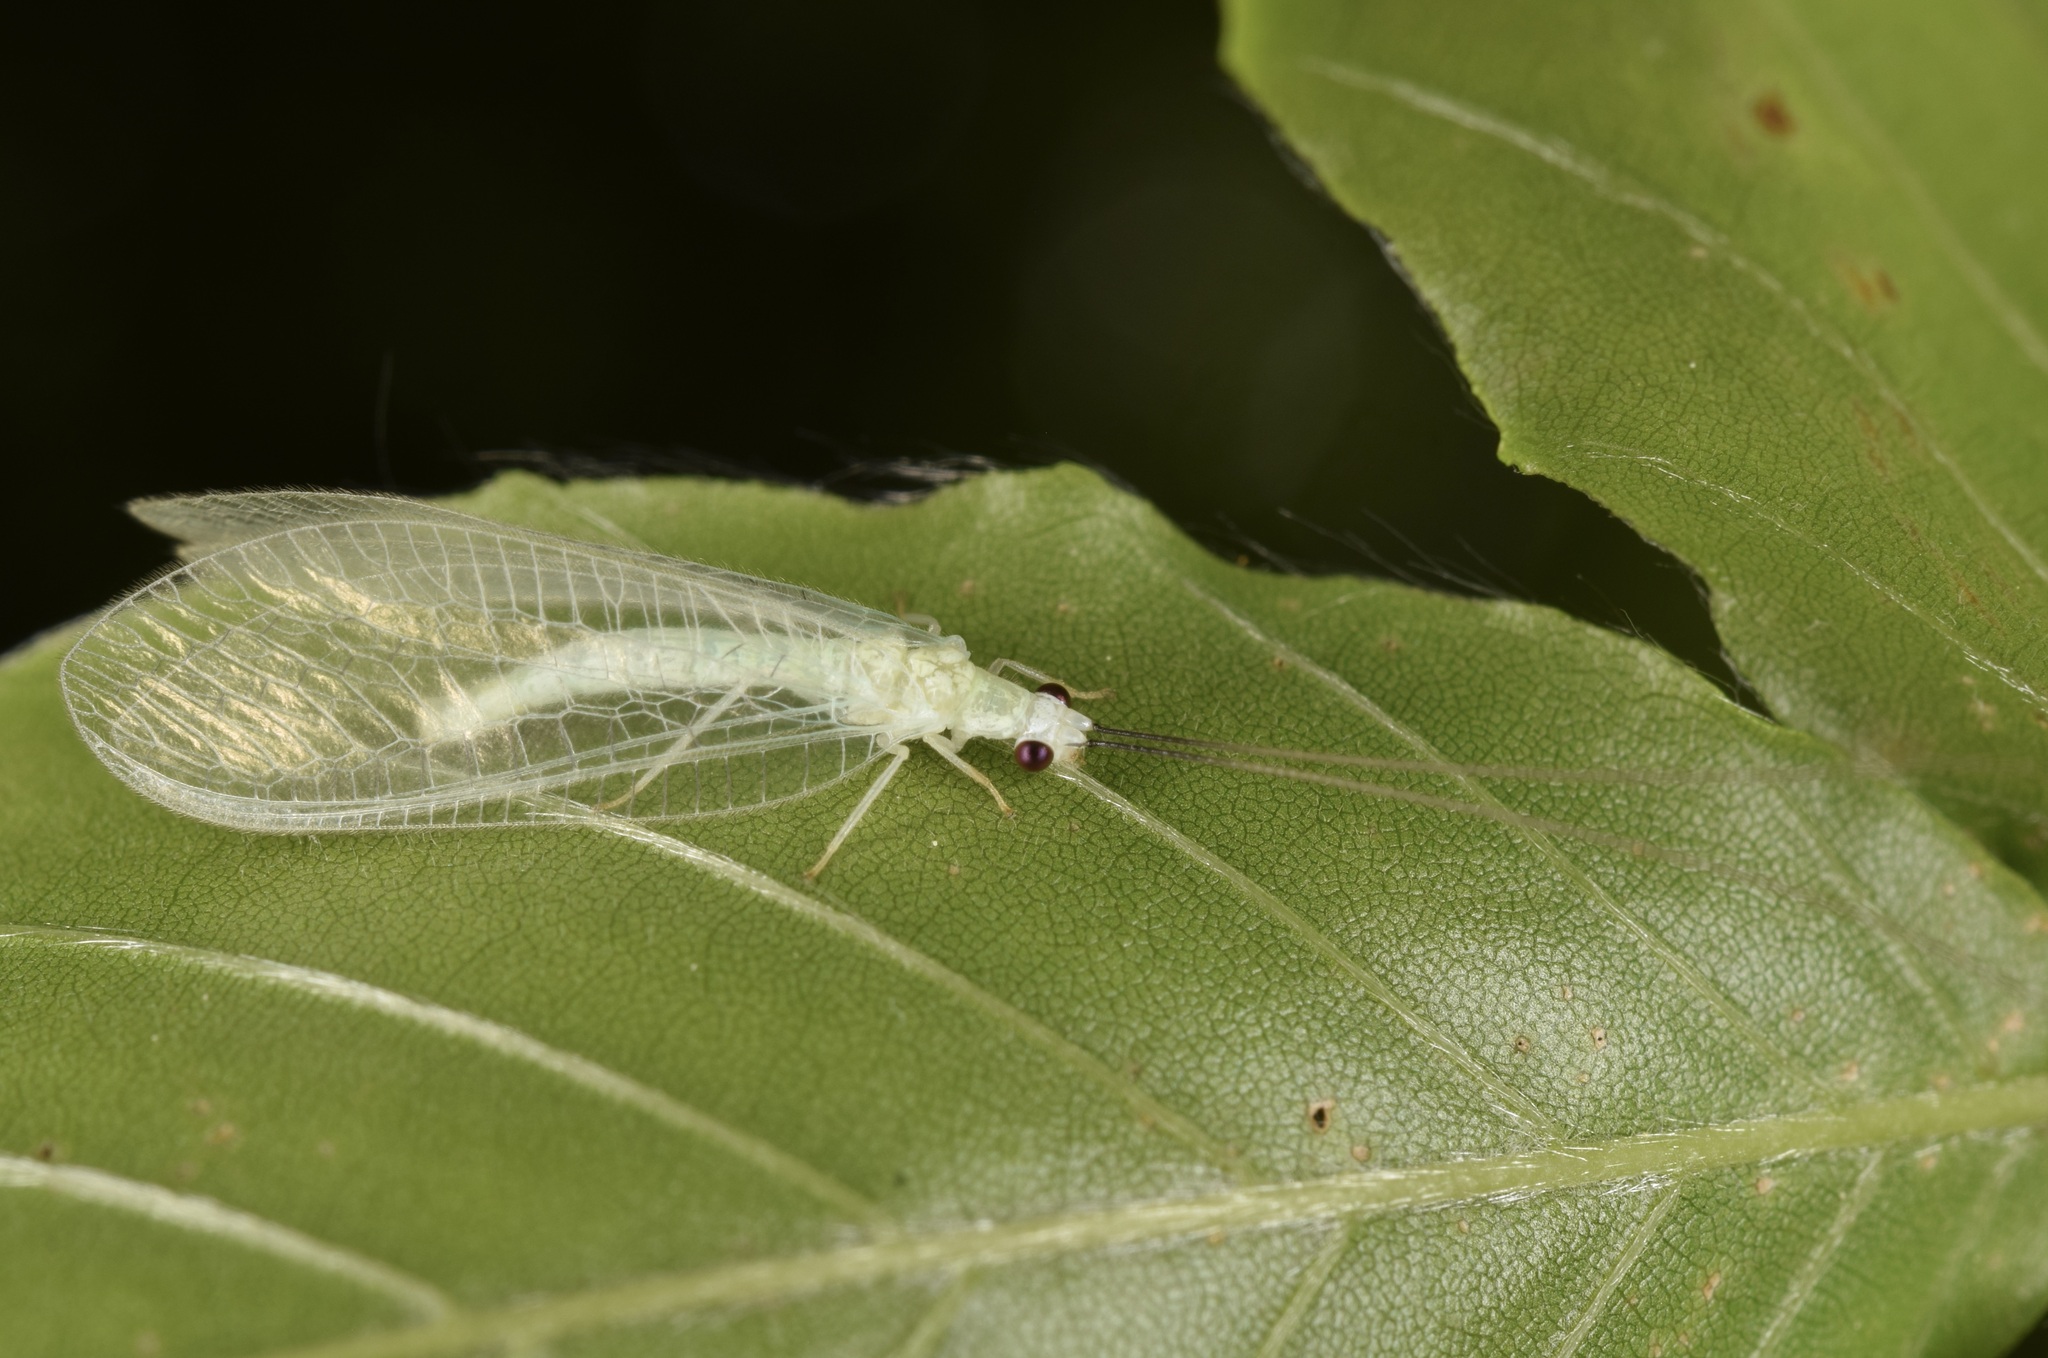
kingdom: Animalia
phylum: Arthropoda
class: Insecta
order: Neuroptera
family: Chrysopidae
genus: Ceraeochrysa
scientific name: Ceraeochrysa lineaticornis
